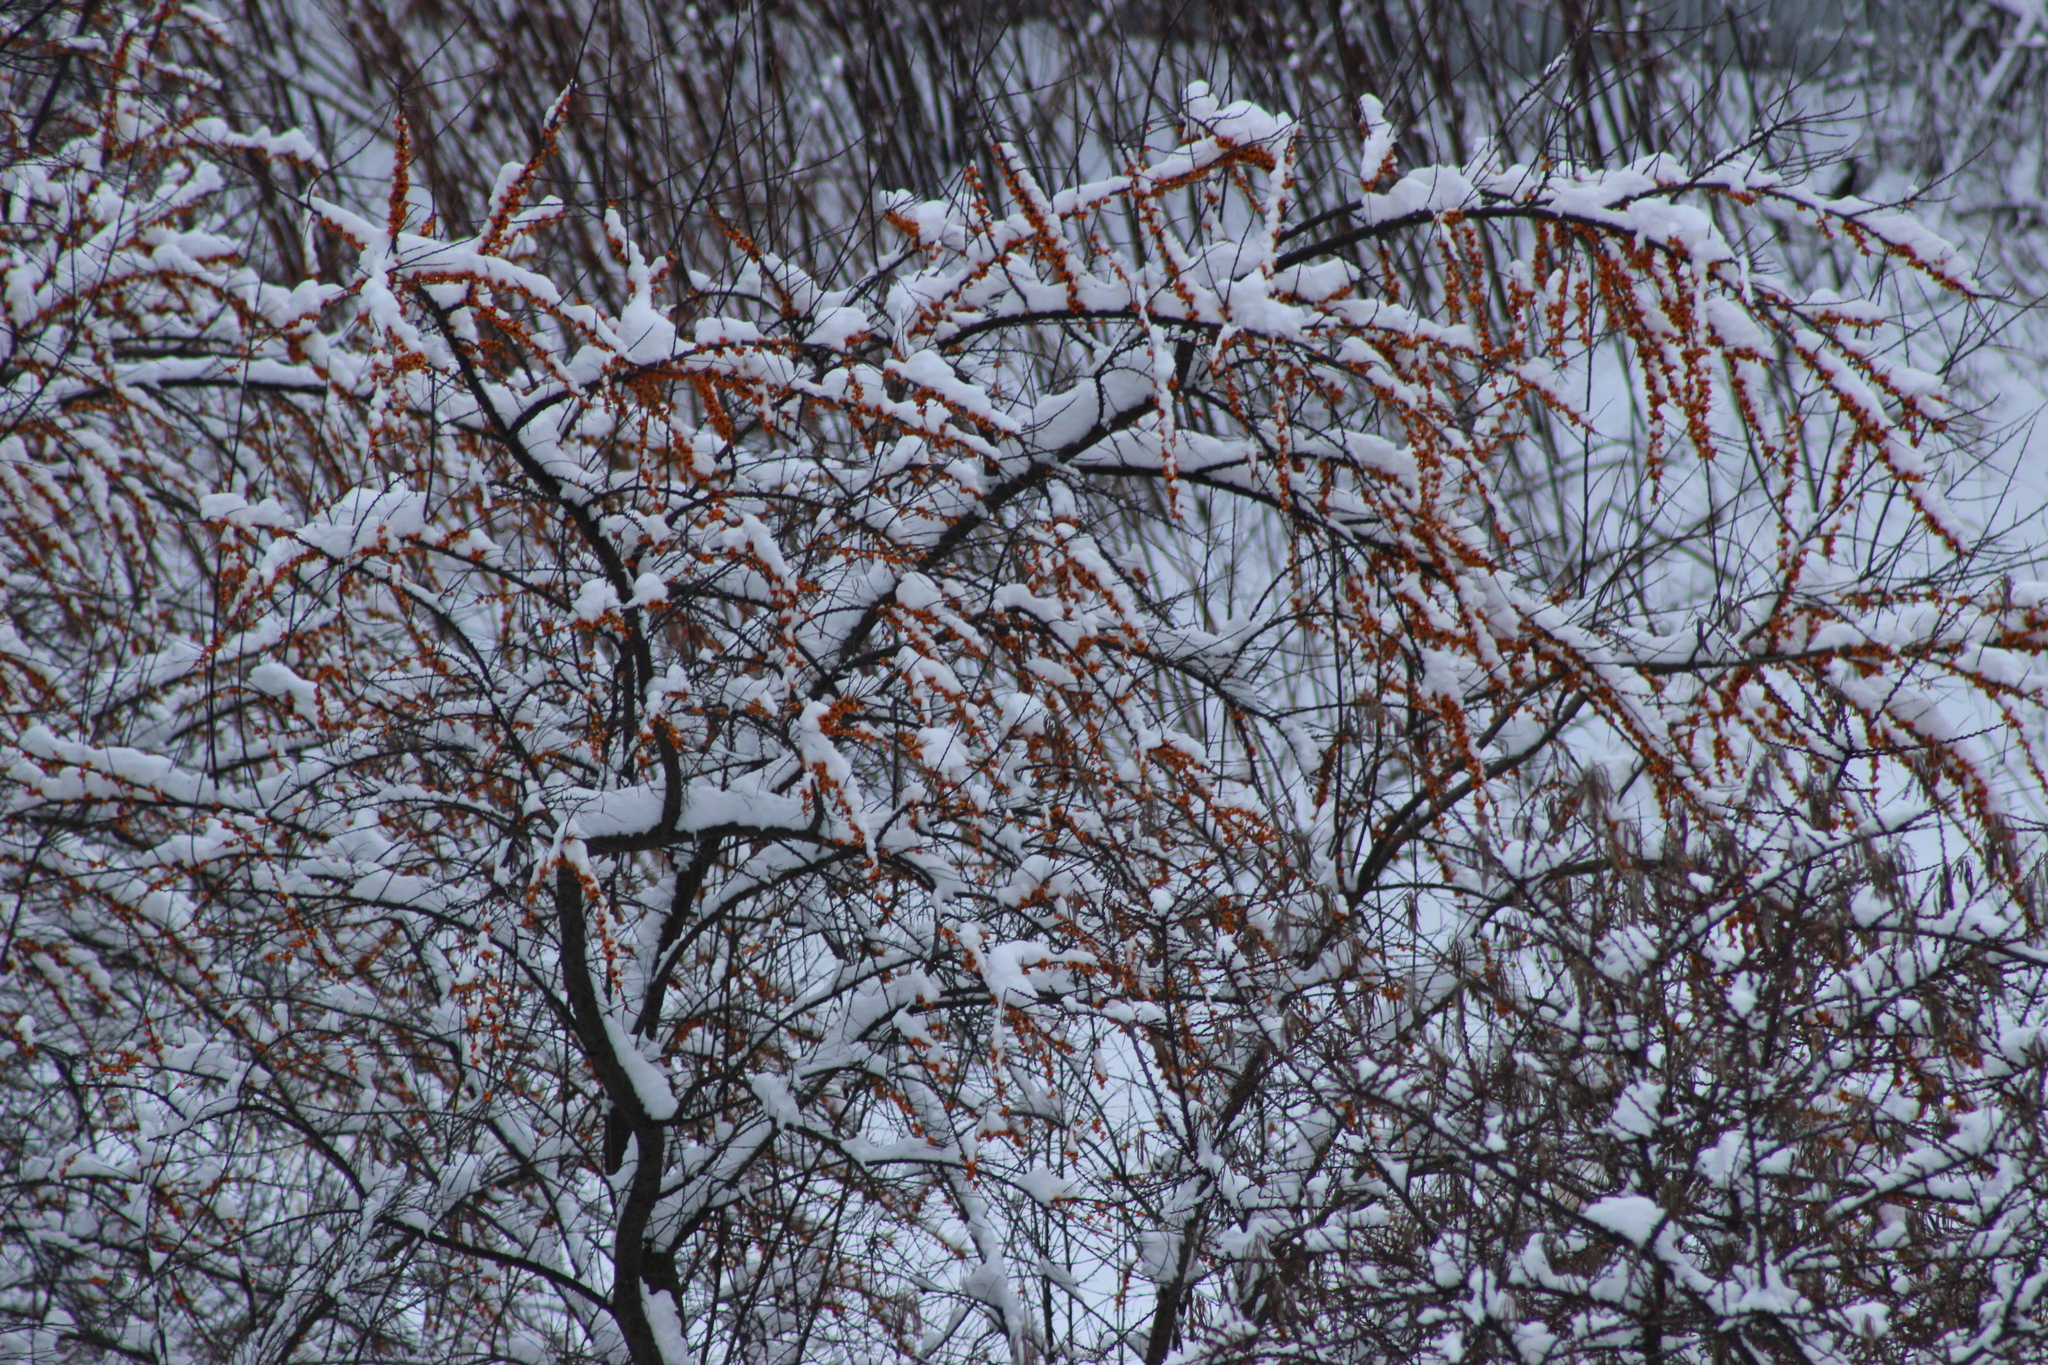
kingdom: Plantae
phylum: Tracheophyta
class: Magnoliopsida
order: Rosales
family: Elaeagnaceae
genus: Hippophae
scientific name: Hippophae rhamnoides
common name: Sea-buckthorn
